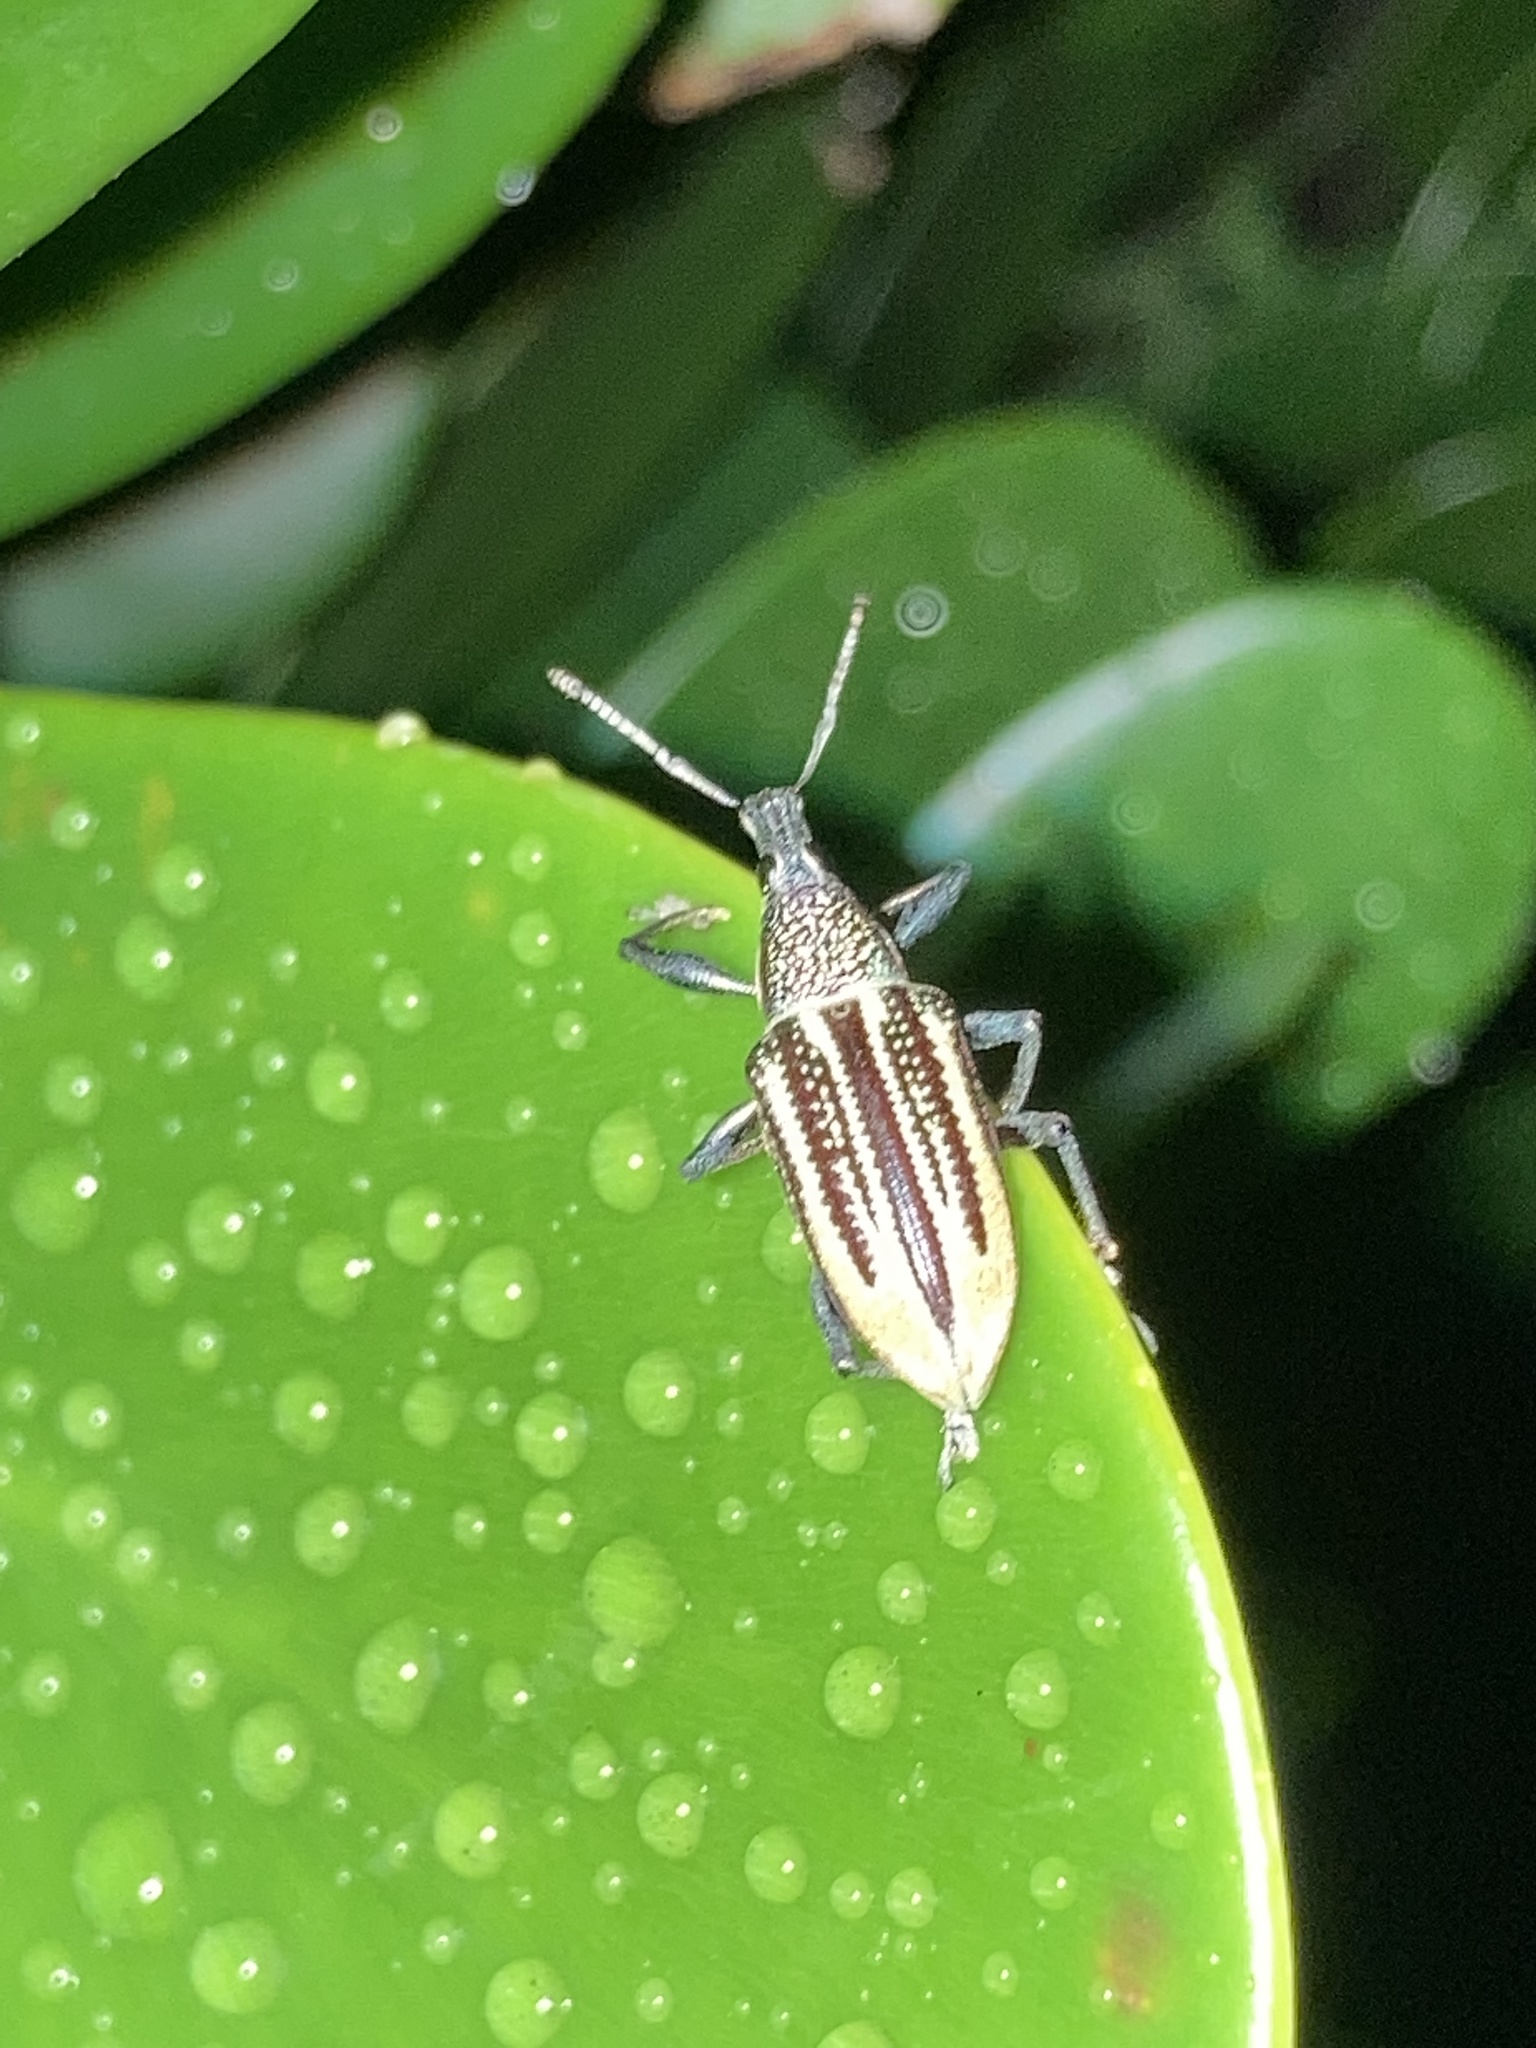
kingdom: Animalia
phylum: Arthropoda
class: Insecta
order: Coleoptera
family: Curculionidae
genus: Diaprepes
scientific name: Diaprepes abbreviatus
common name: Root weevil
